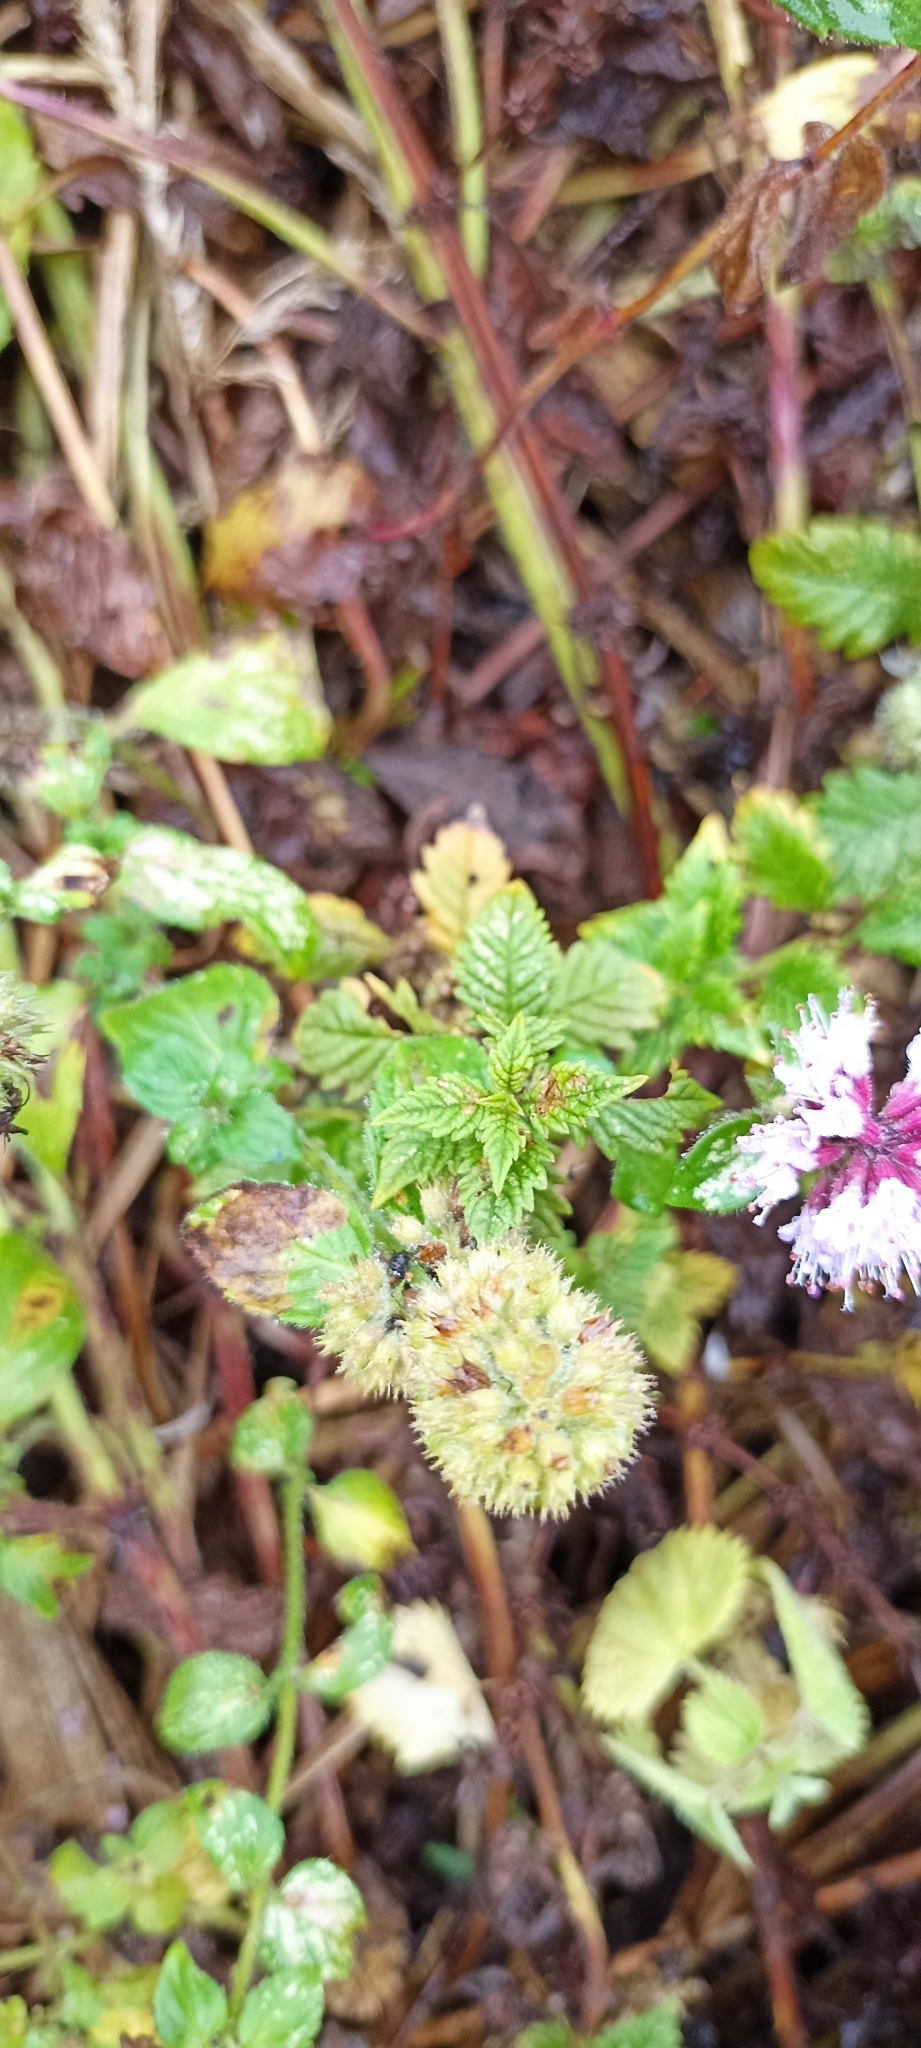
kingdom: Plantae
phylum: Tracheophyta
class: Magnoliopsida
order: Lamiales
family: Lamiaceae
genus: Mentha
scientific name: Mentha aquatica
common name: Water mint
